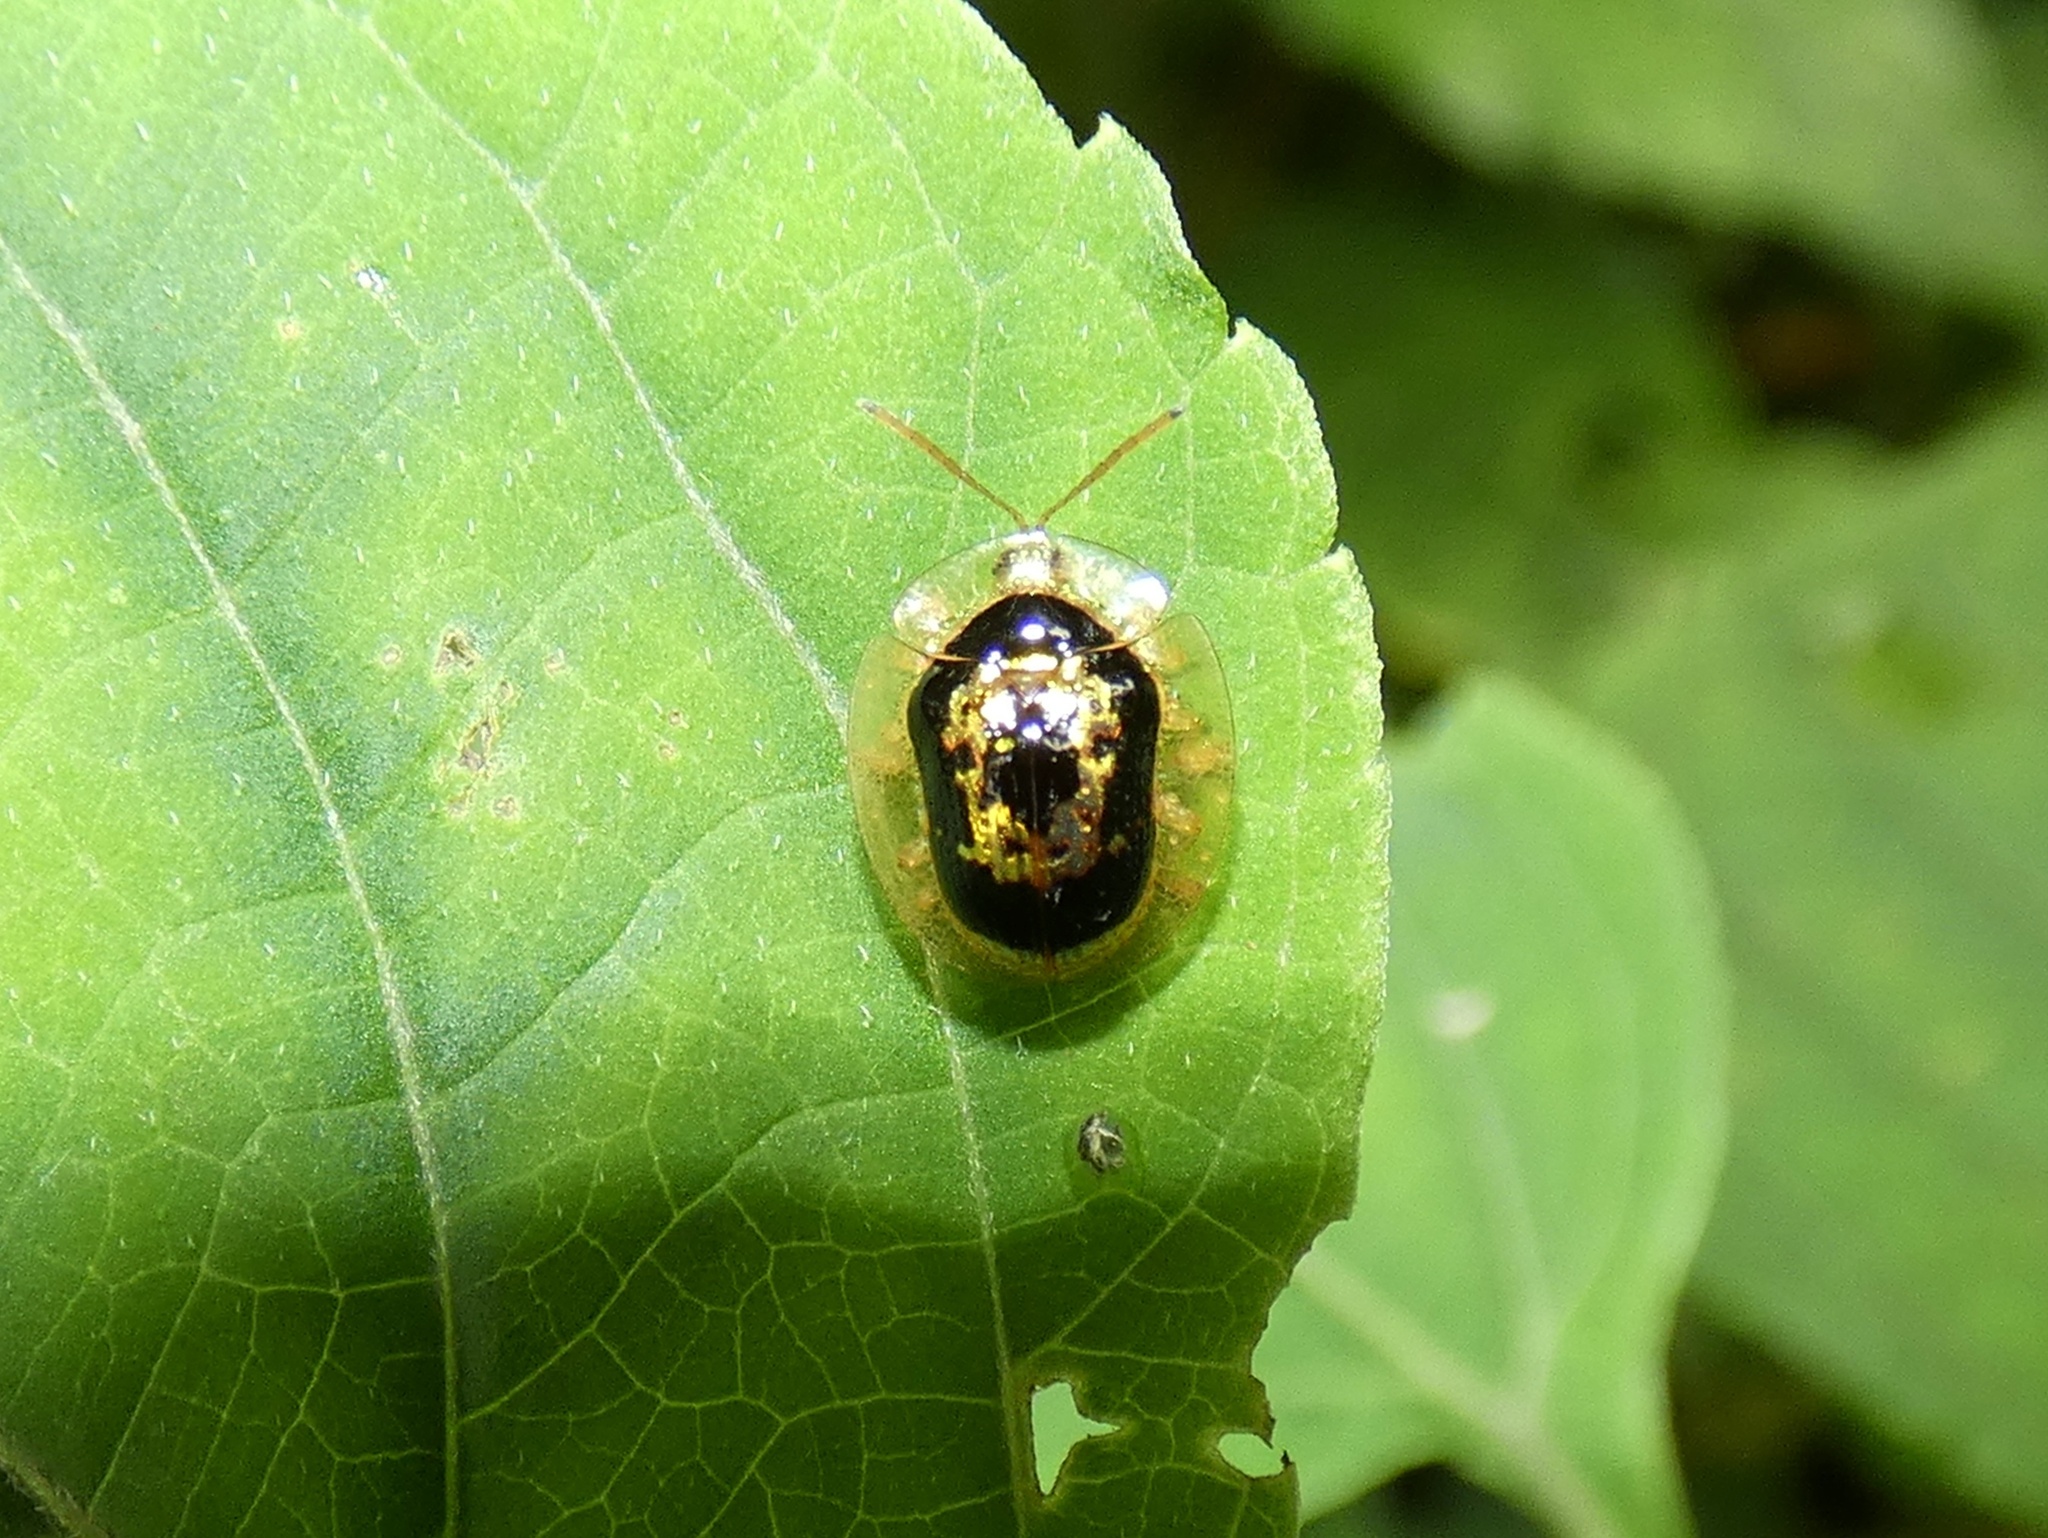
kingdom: Animalia
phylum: Arthropoda
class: Insecta
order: Coleoptera
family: Chrysomelidae
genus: Microctenochira
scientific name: Microctenochira panamensis
